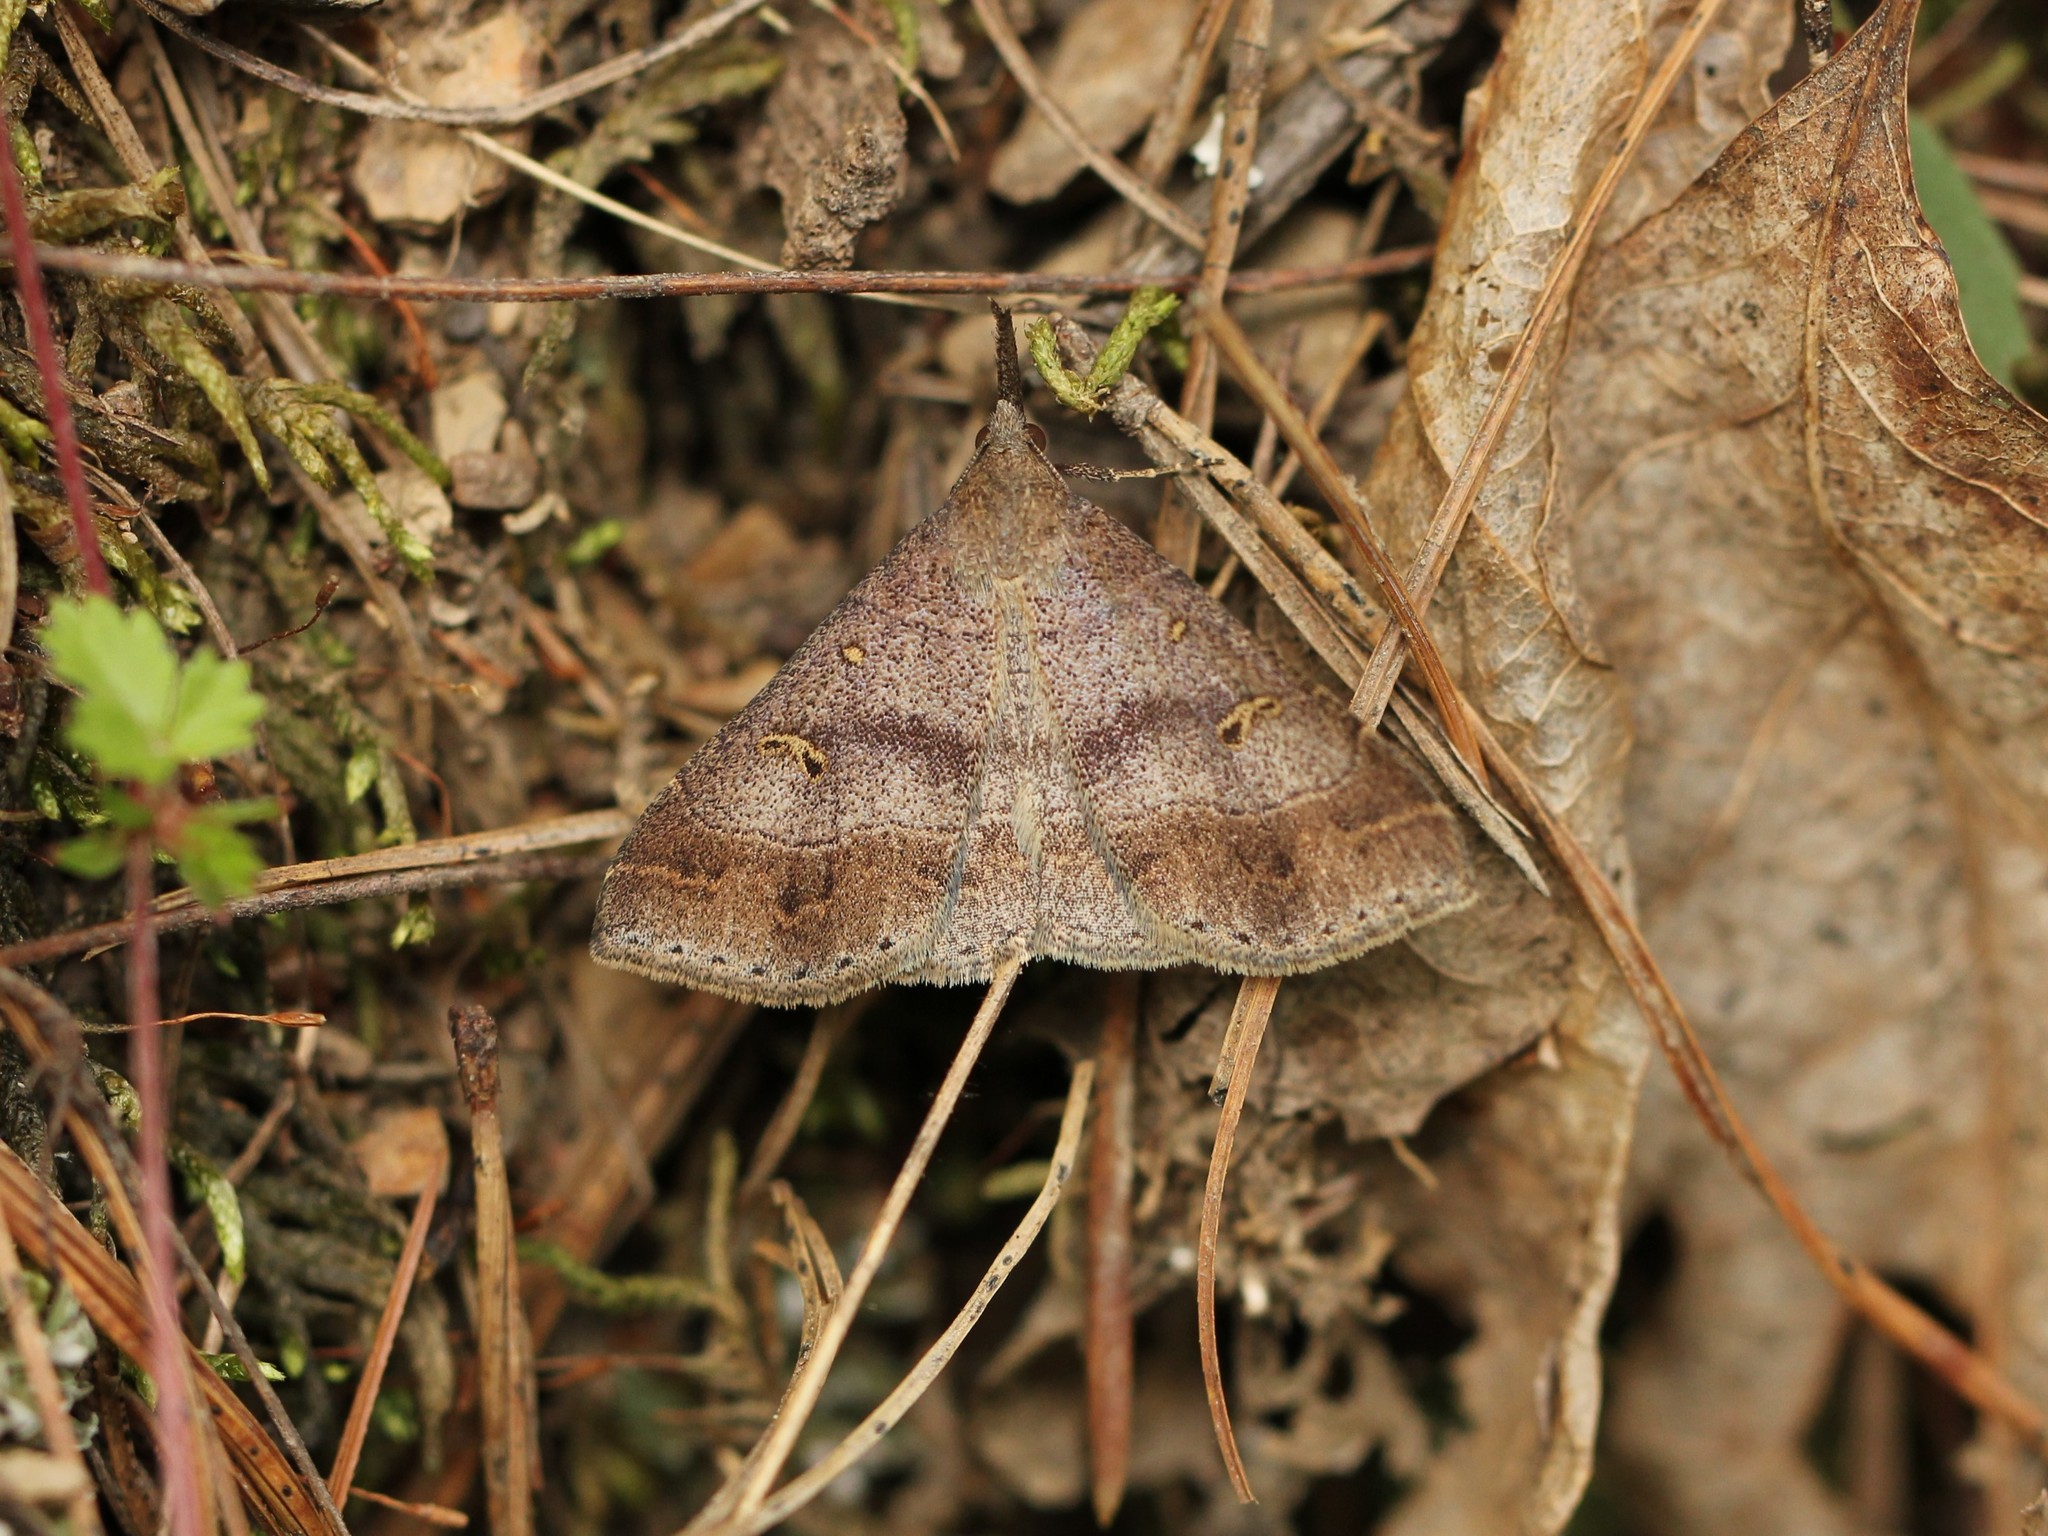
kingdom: Animalia
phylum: Arthropoda
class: Insecta
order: Lepidoptera
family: Erebidae
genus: Renia
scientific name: Renia flavipunctalis
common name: Yellow-spotted renia moth
